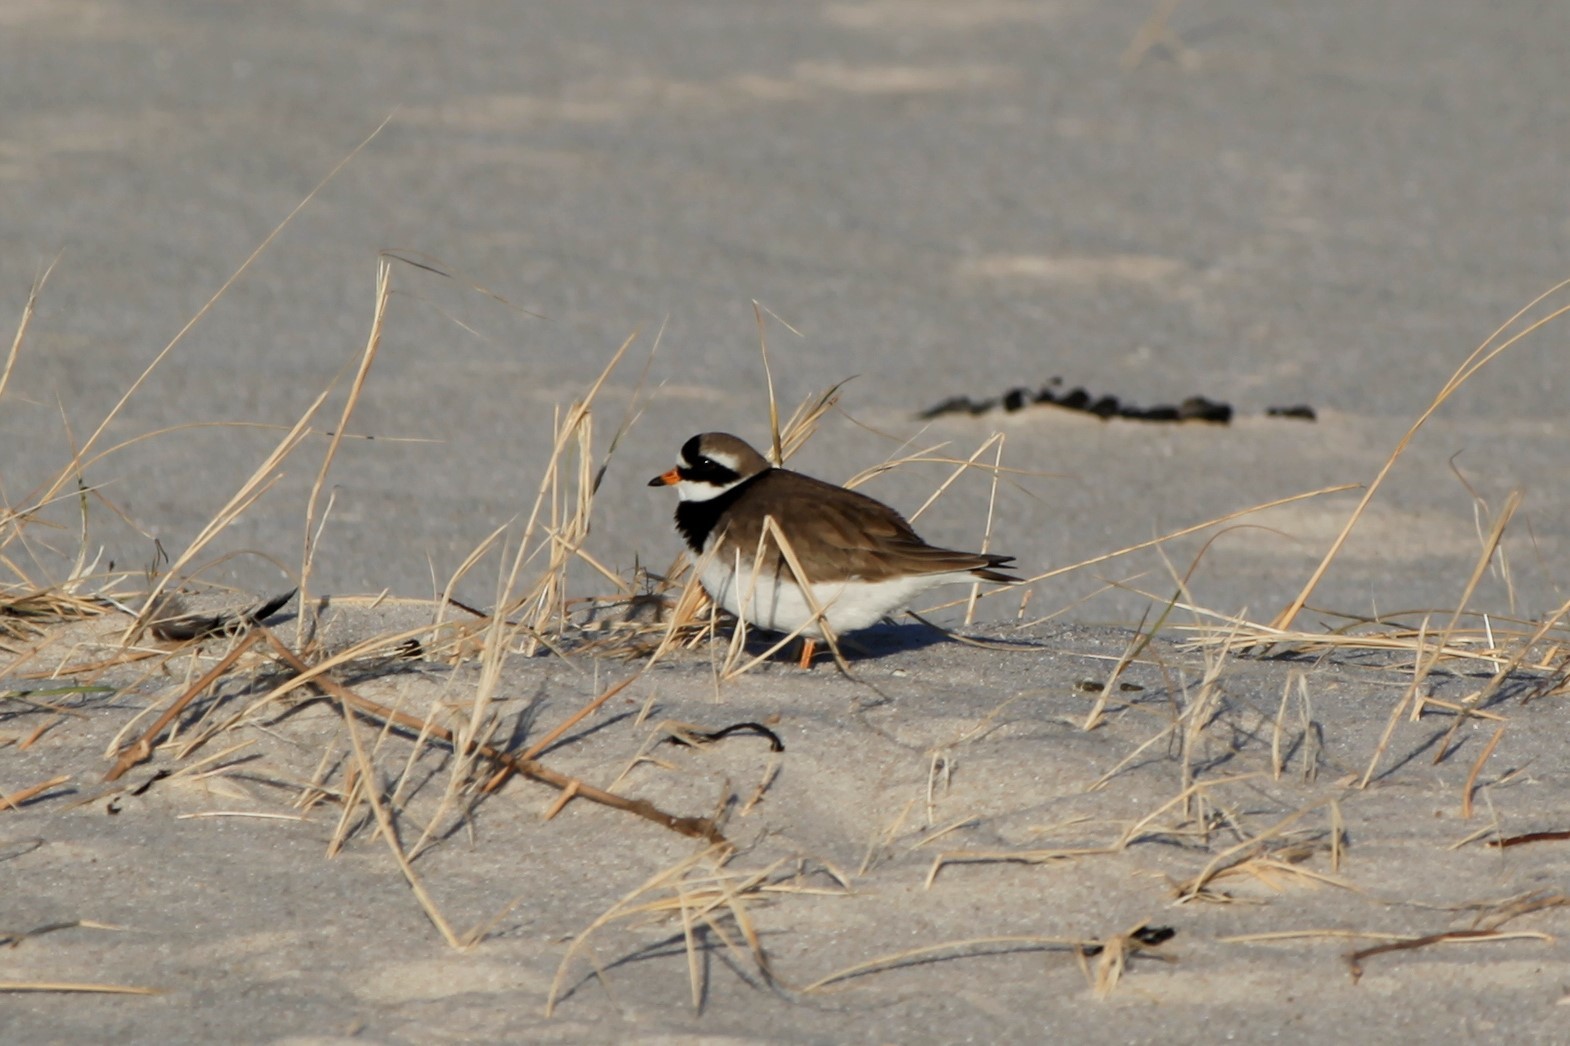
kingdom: Animalia
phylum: Chordata
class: Aves
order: Charadriiformes
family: Charadriidae
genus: Charadrius
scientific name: Charadrius hiaticula
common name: Common ringed plover
